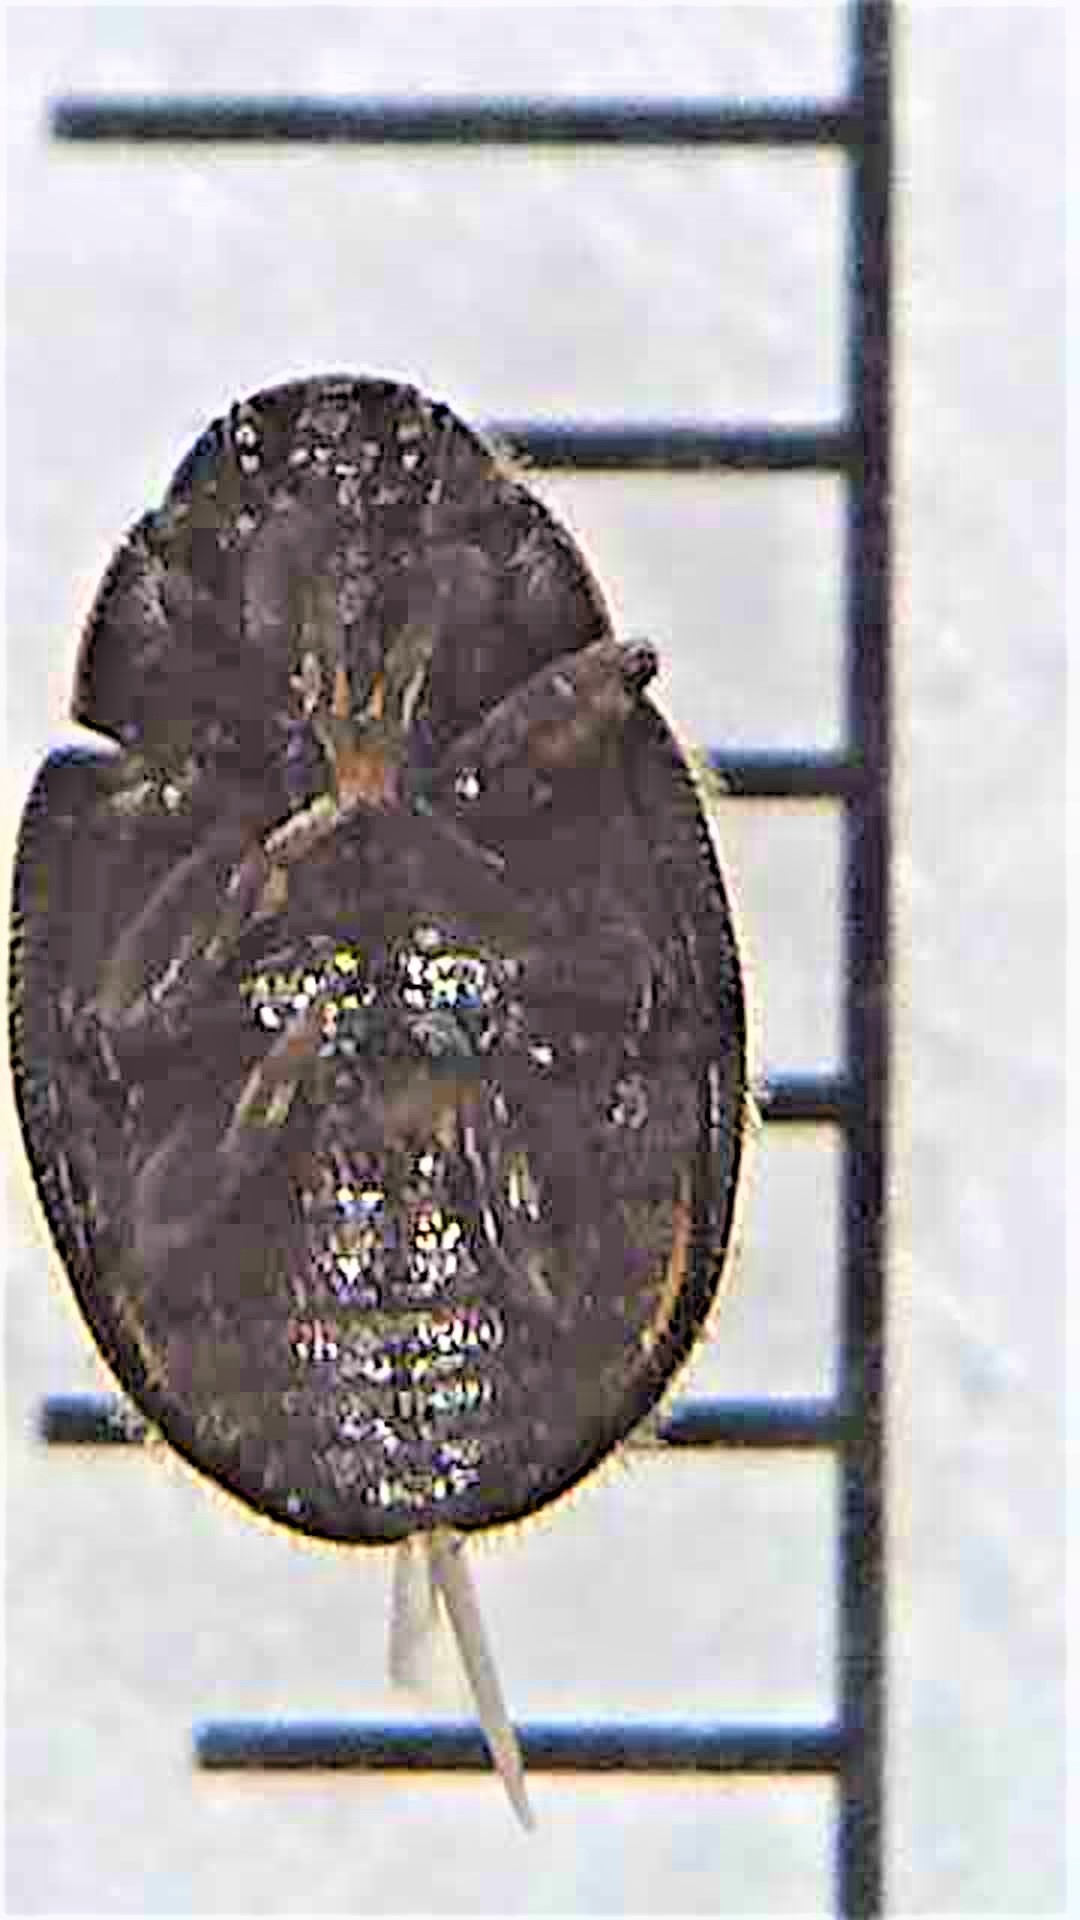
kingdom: Animalia
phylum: Arthropoda
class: Insecta
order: Coleoptera
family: Coccinellidae
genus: Scymnus
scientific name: Scymnus blackburni
